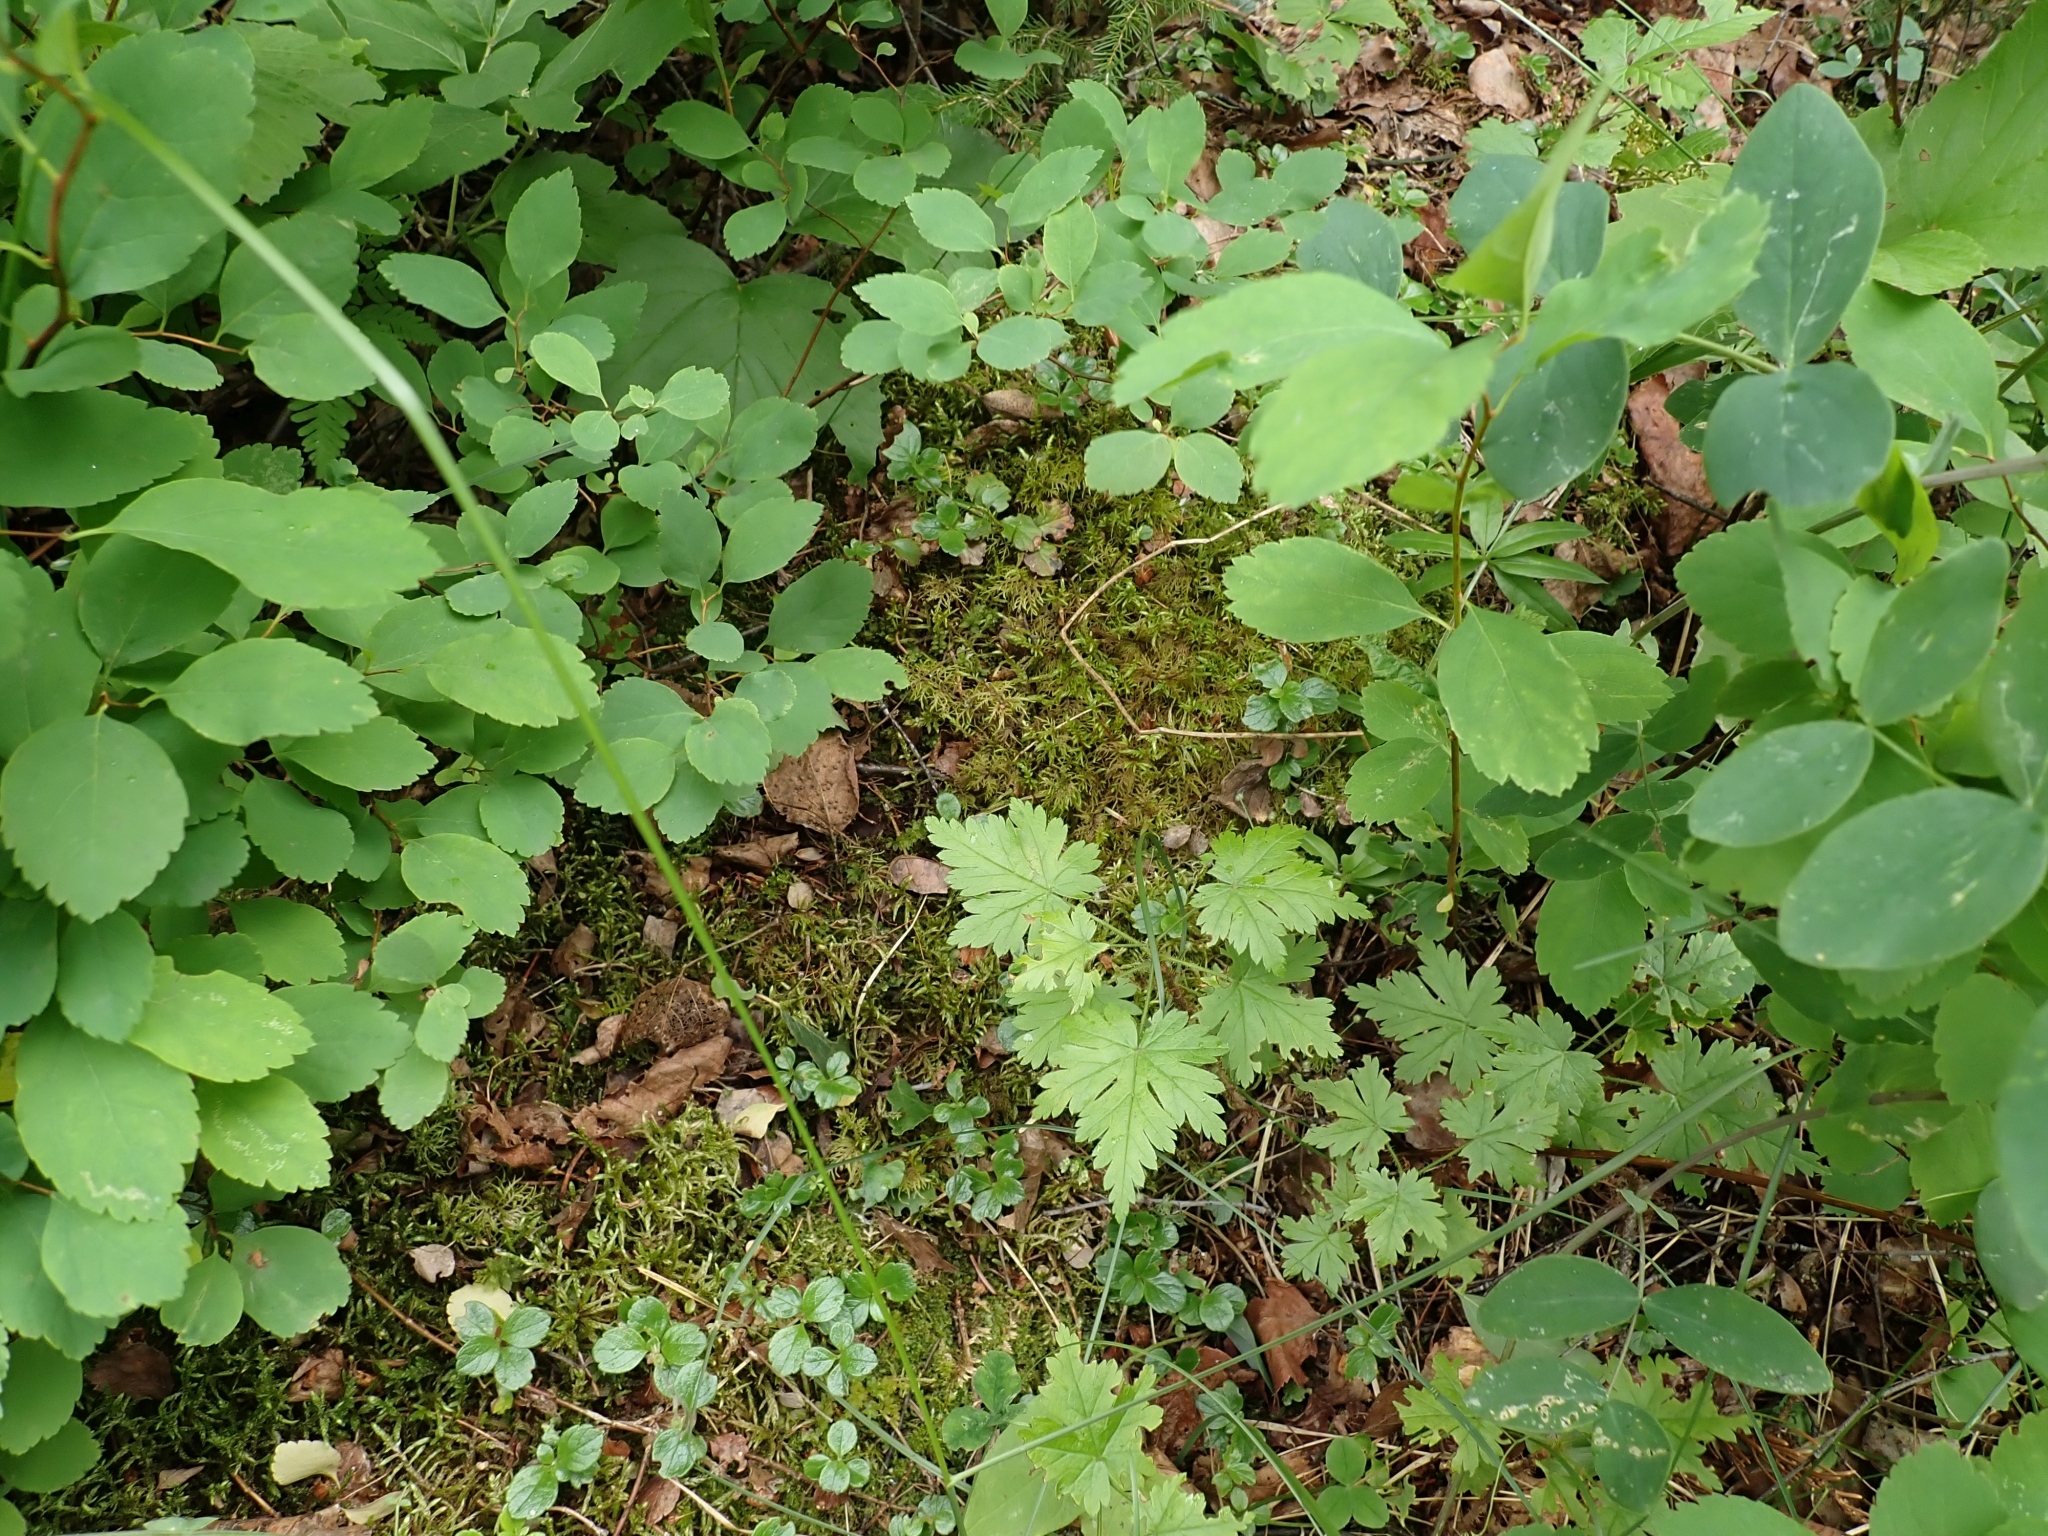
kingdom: Plantae
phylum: Bryophyta
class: Bryopsida
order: Hypnales
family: Hylocomiaceae
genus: Hylocomium
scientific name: Hylocomium splendens
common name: Stairstep moss
